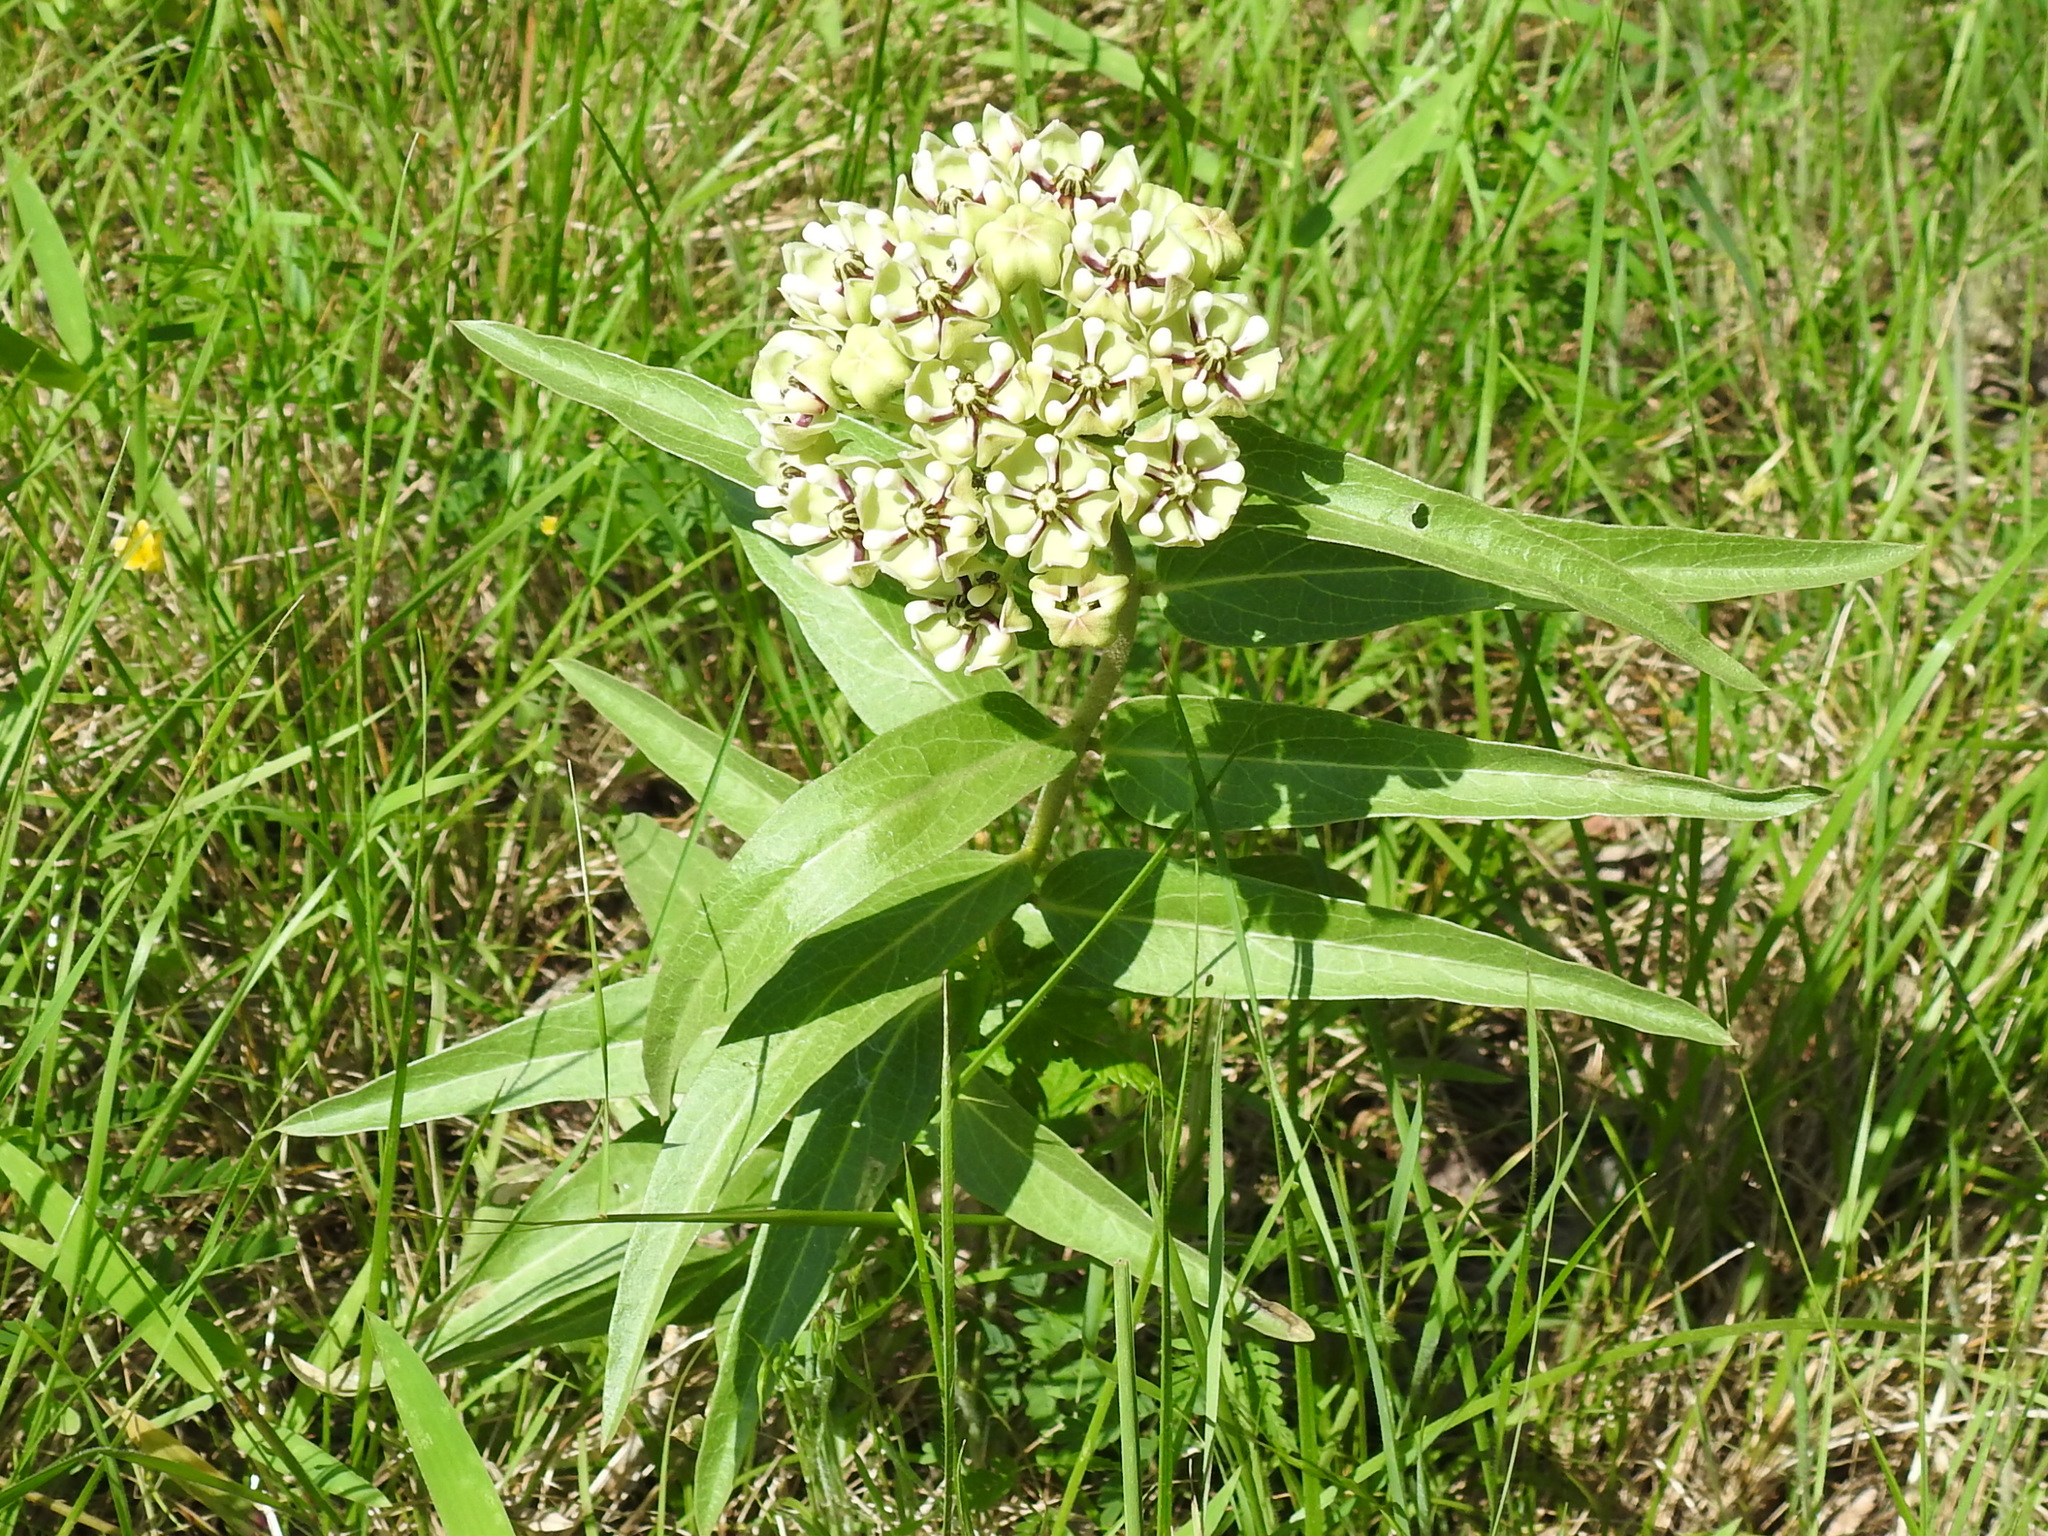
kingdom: Plantae
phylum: Tracheophyta
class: Magnoliopsida
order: Gentianales
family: Apocynaceae
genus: Asclepias
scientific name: Asclepias asperula
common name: Antelope horns
